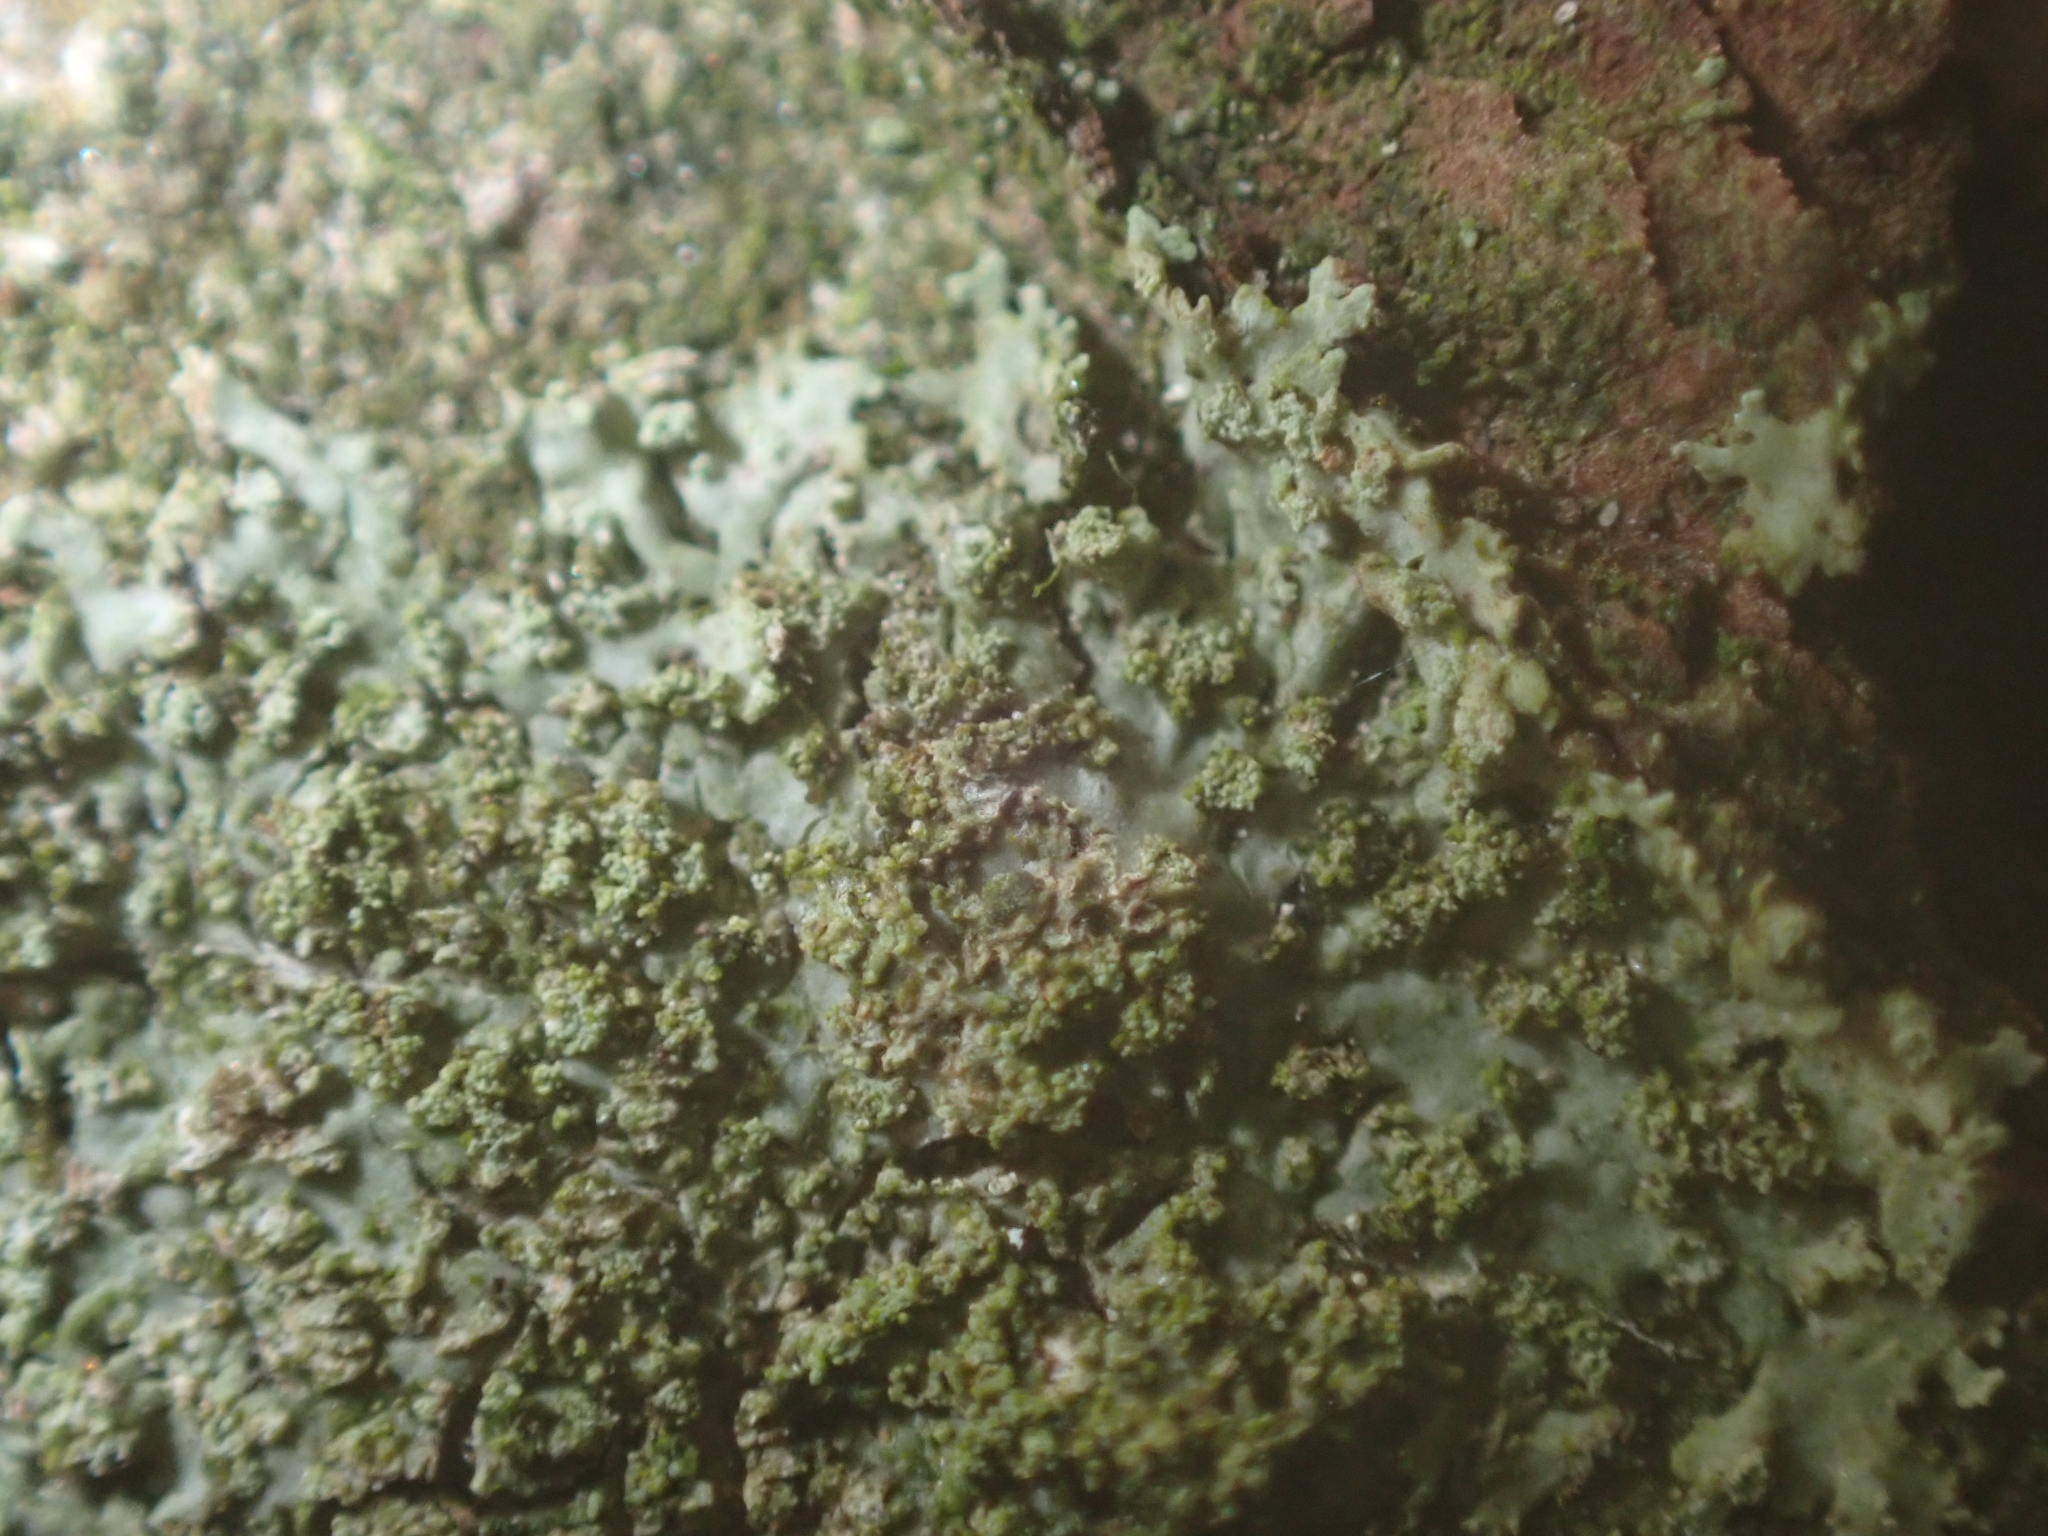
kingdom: Fungi
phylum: Ascomycota
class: Lecanoromycetes
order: Caliciales
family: Physciaceae
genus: Hyperphyscia
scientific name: Hyperphyscia adglutinata
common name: Grainy shadow-crust lichen
